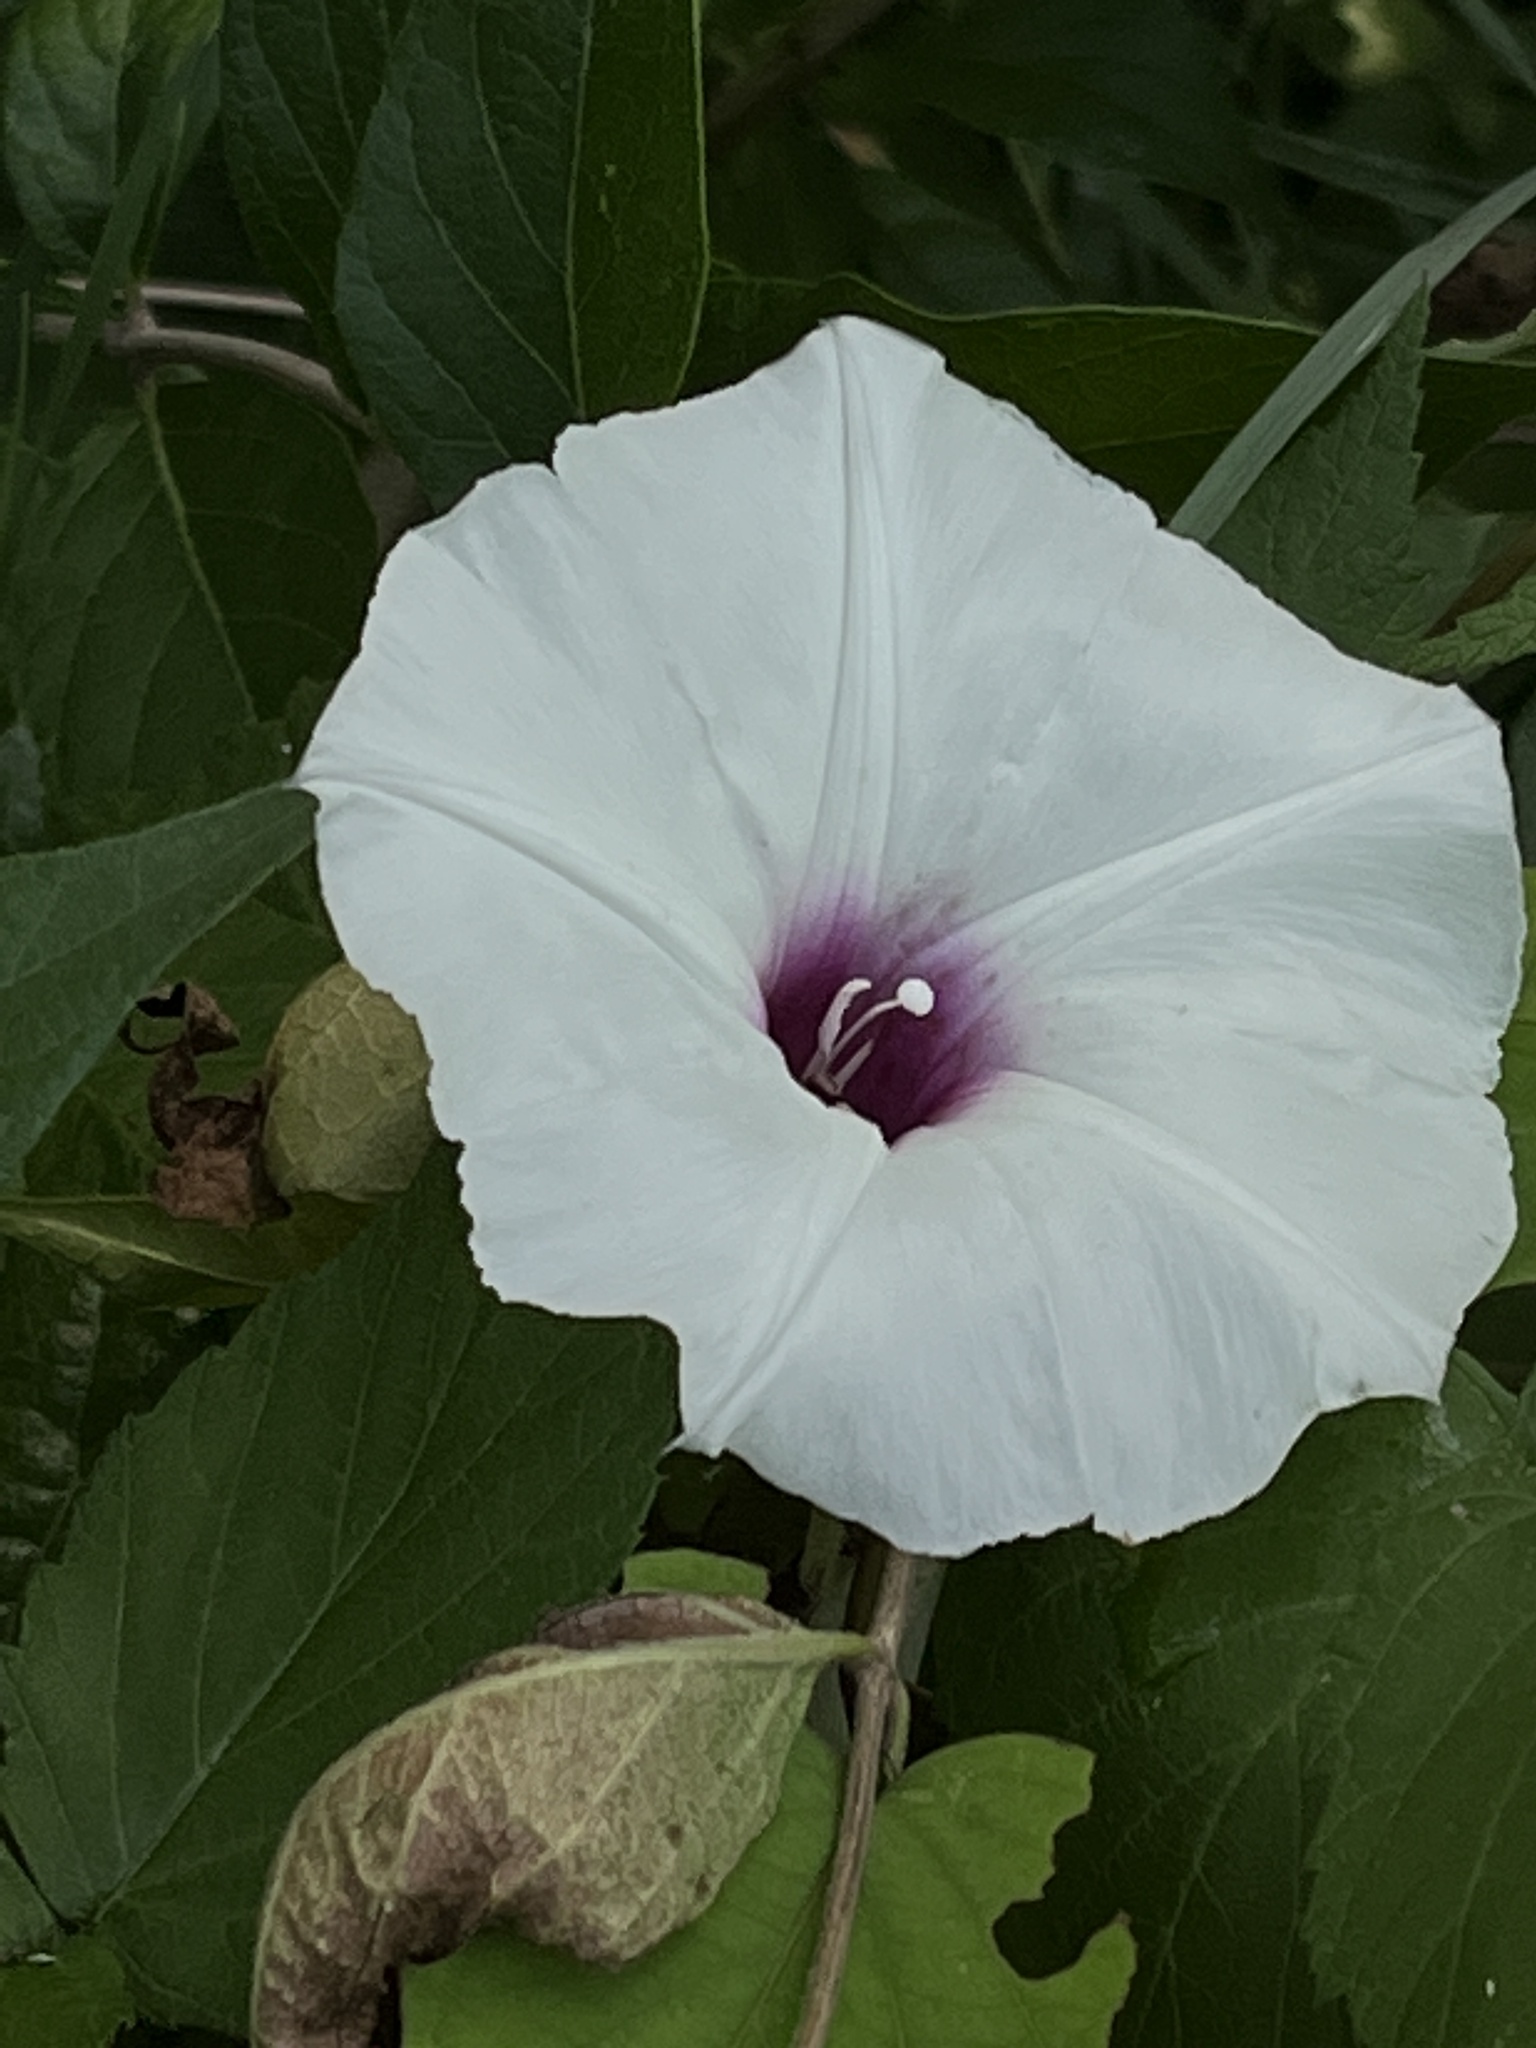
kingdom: Plantae
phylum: Tracheophyta
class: Magnoliopsida
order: Solanales
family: Convolvulaceae
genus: Ipomoea
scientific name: Ipomoea pandurata
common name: Man-of-the-earth
